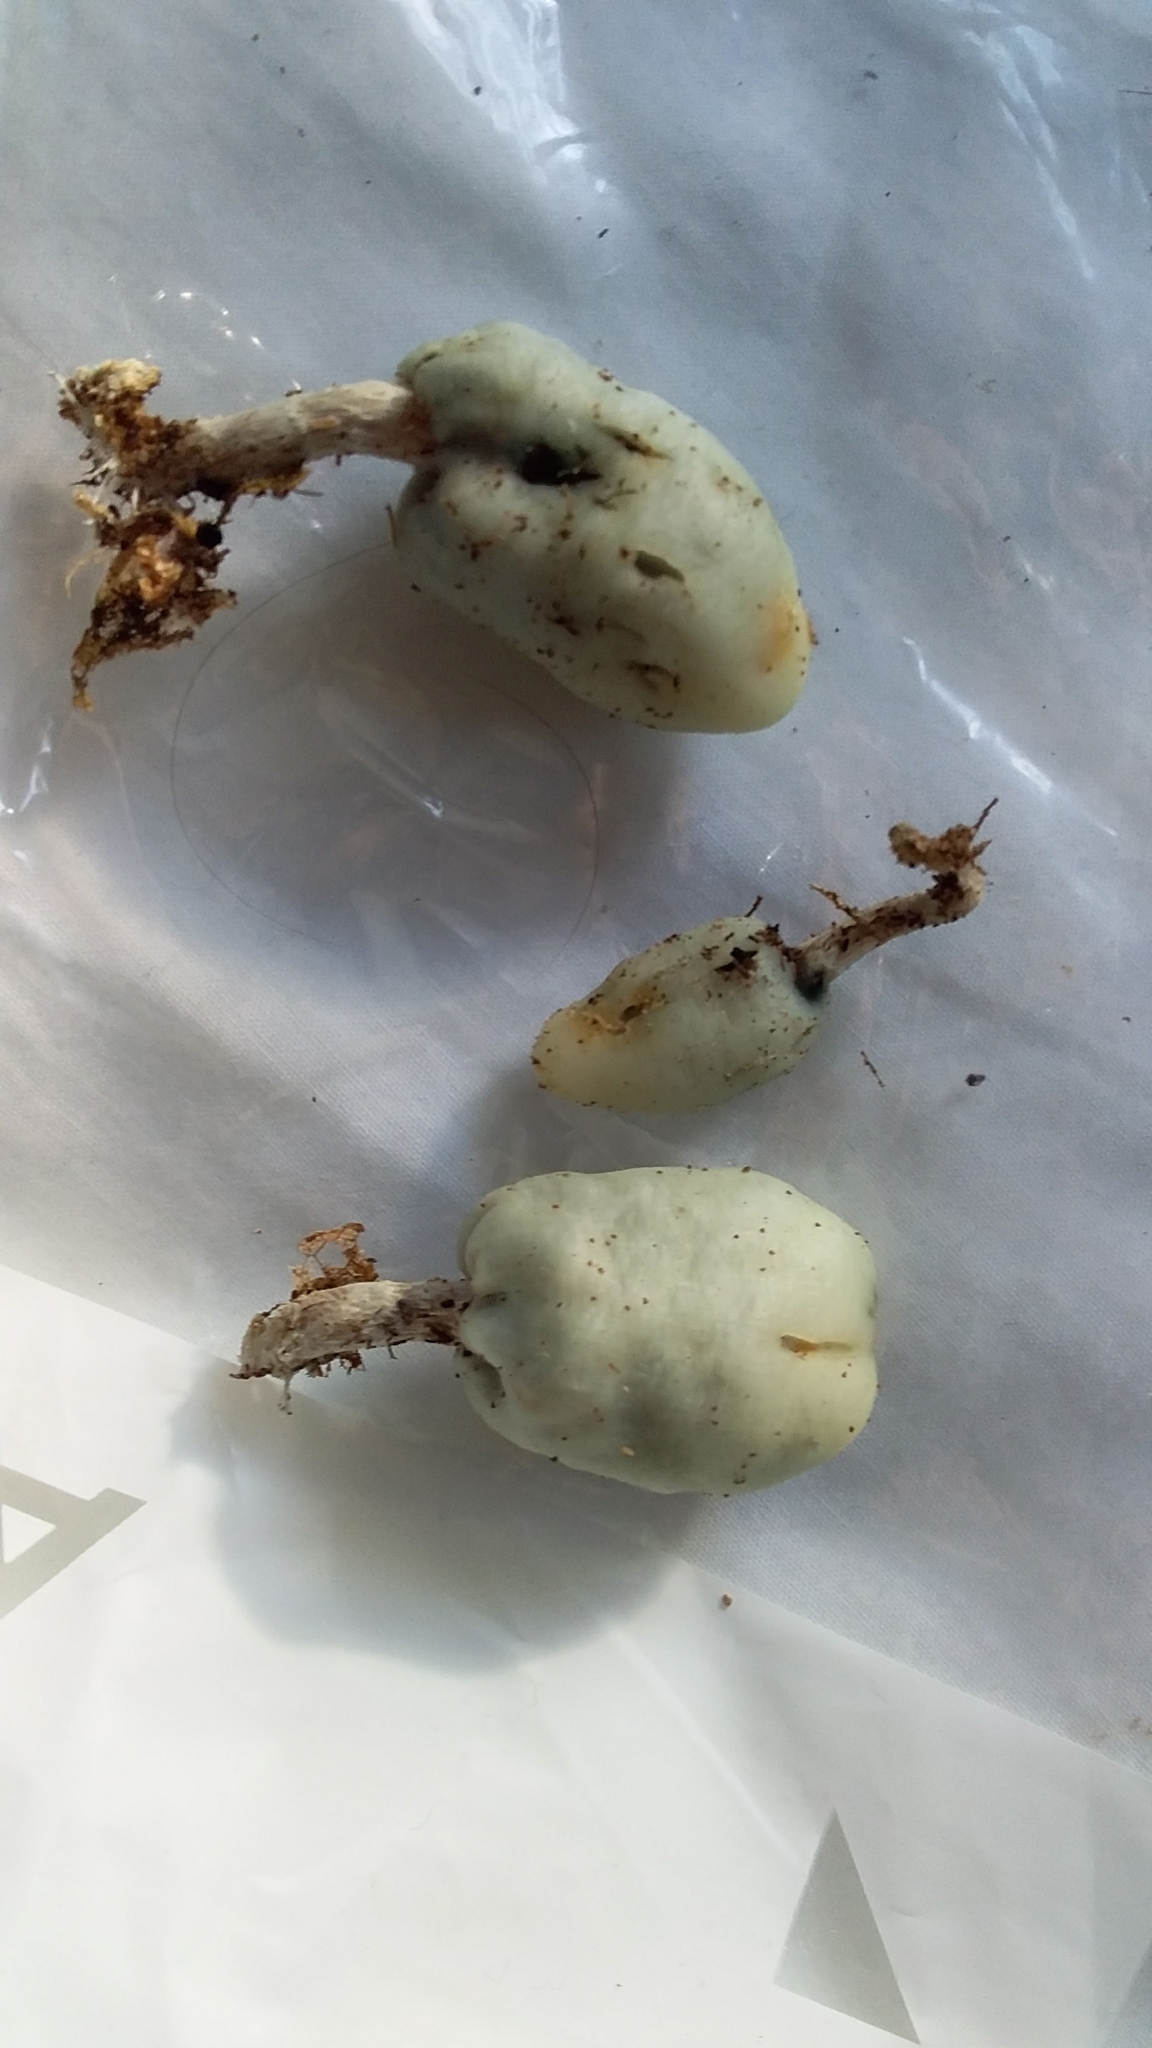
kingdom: Fungi
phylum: Basidiomycota
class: Agaricomycetes
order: Agaricales
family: Hymenogastraceae
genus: Psilocybe
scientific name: Psilocybe weraroa
